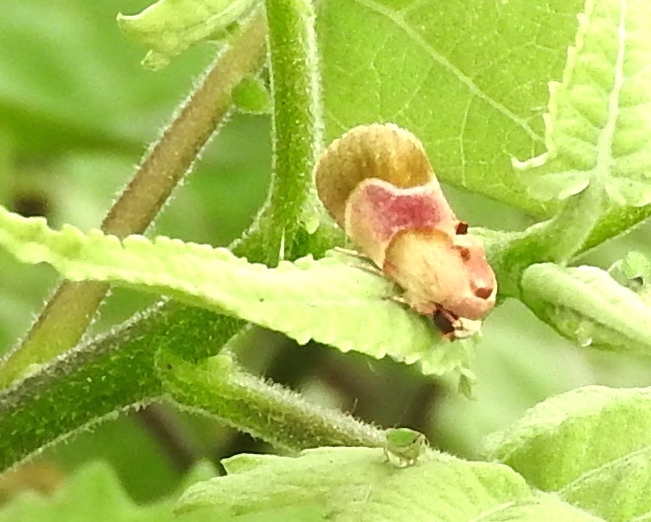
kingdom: Animalia
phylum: Arthropoda
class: Insecta
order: Lepidoptera
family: Noctuidae
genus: Chalcoecia
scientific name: Chalcoecia
